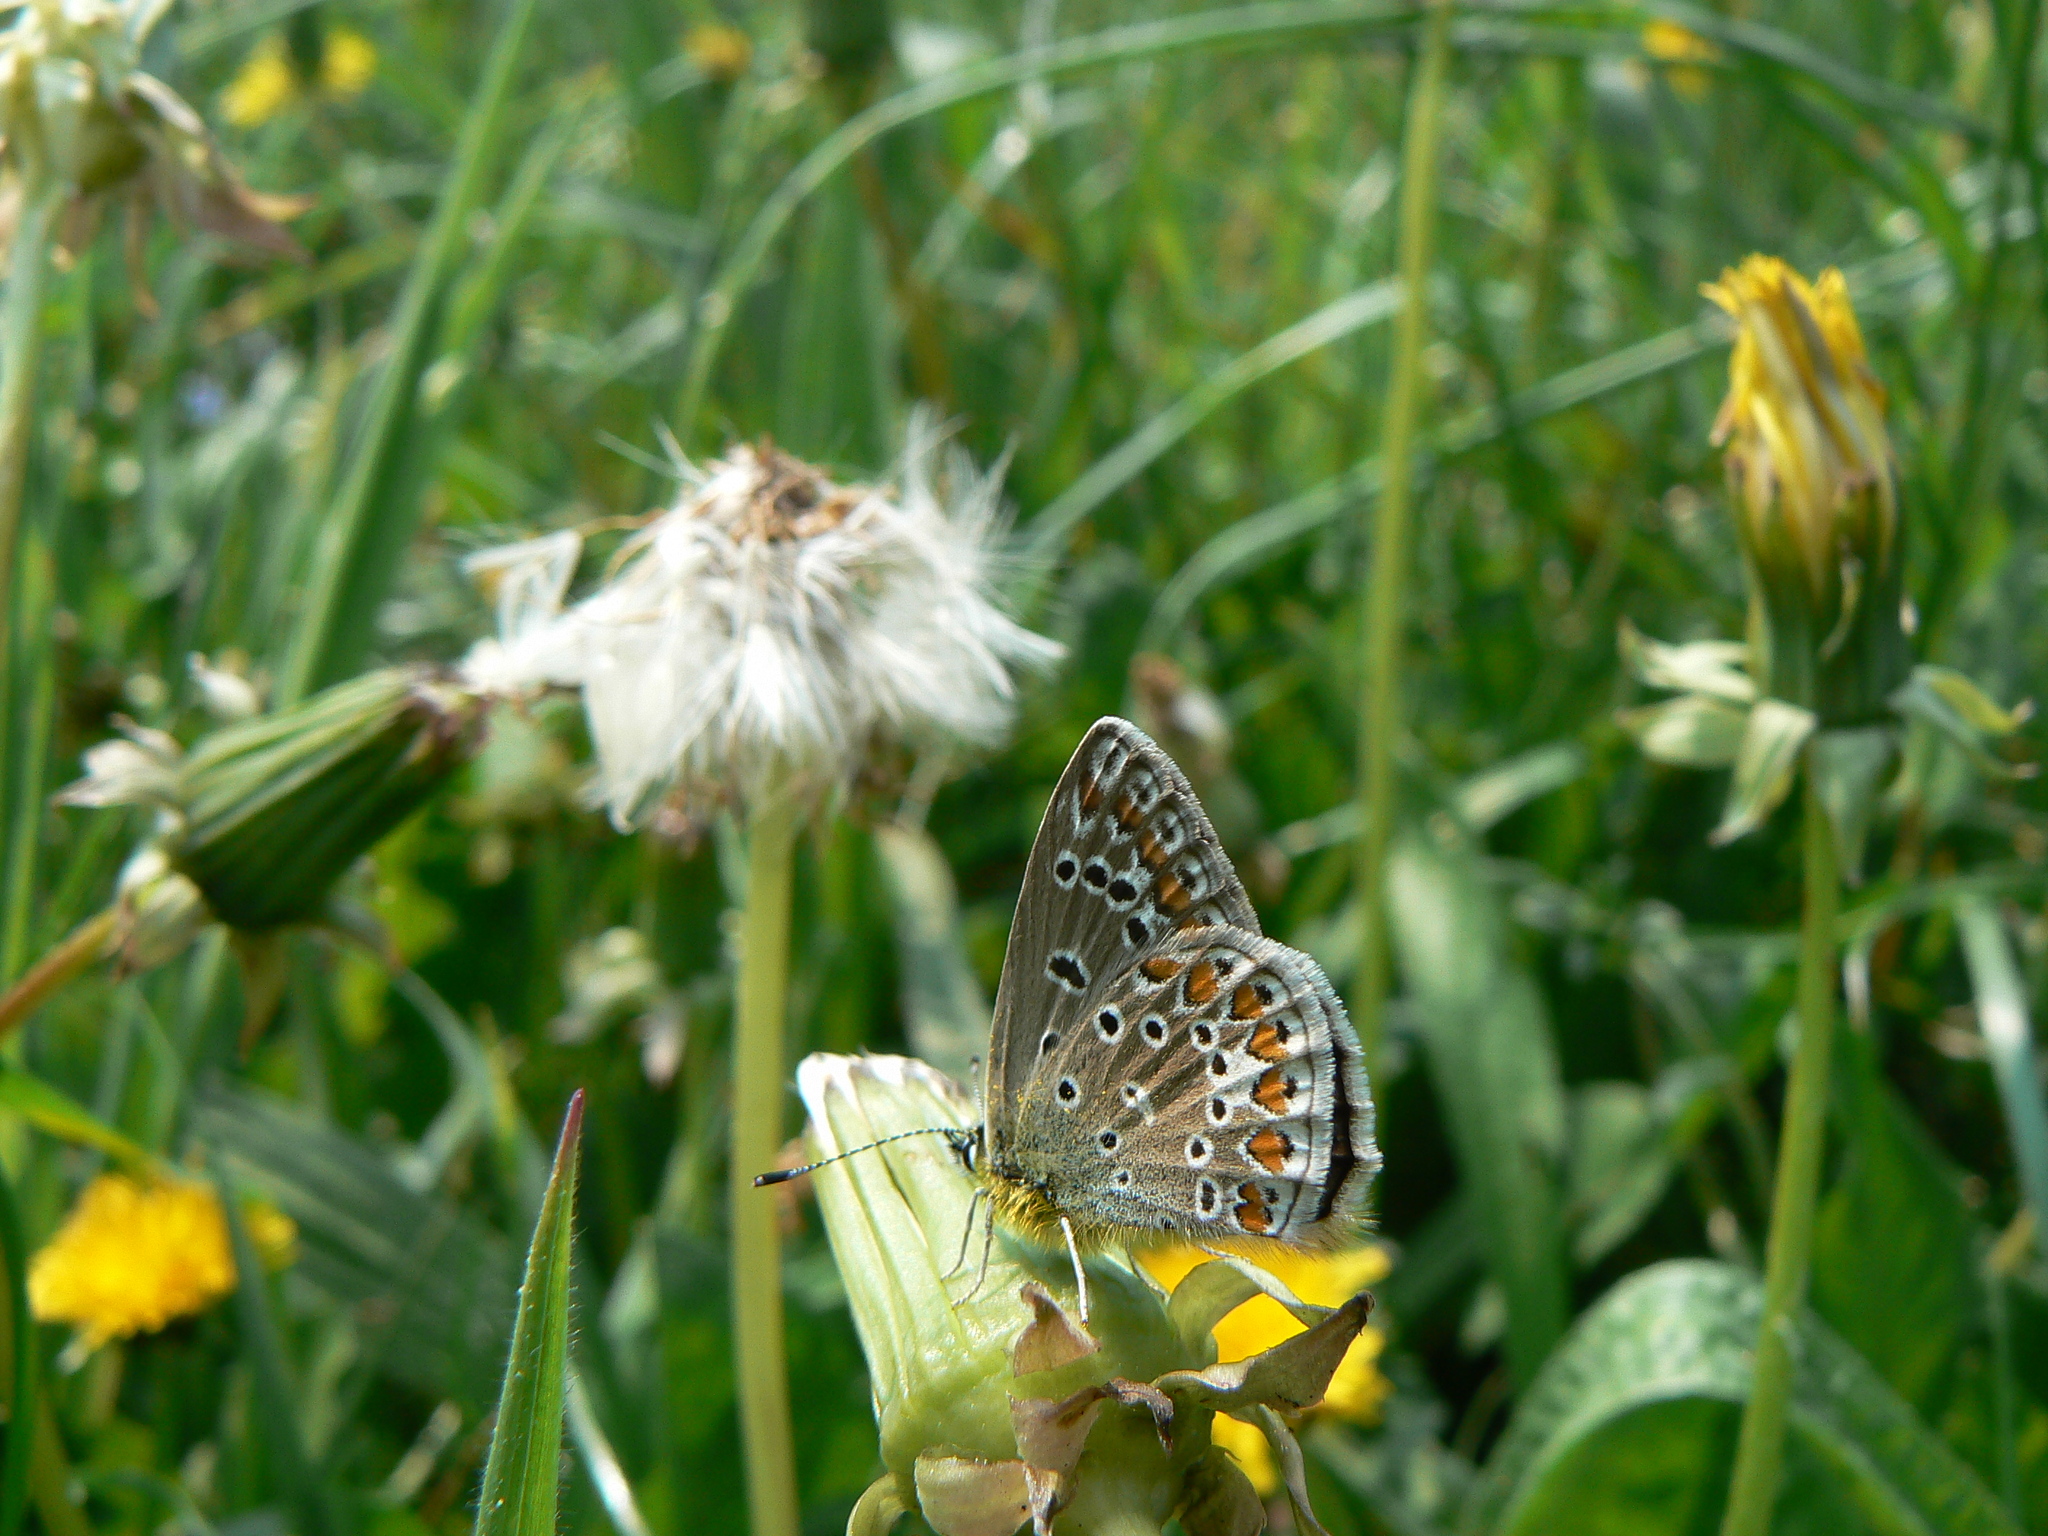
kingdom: Animalia
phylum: Arthropoda
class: Insecta
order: Lepidoptera
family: Lycaenidae
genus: Polyommatus
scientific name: Polyommatus icarus
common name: Common blue
